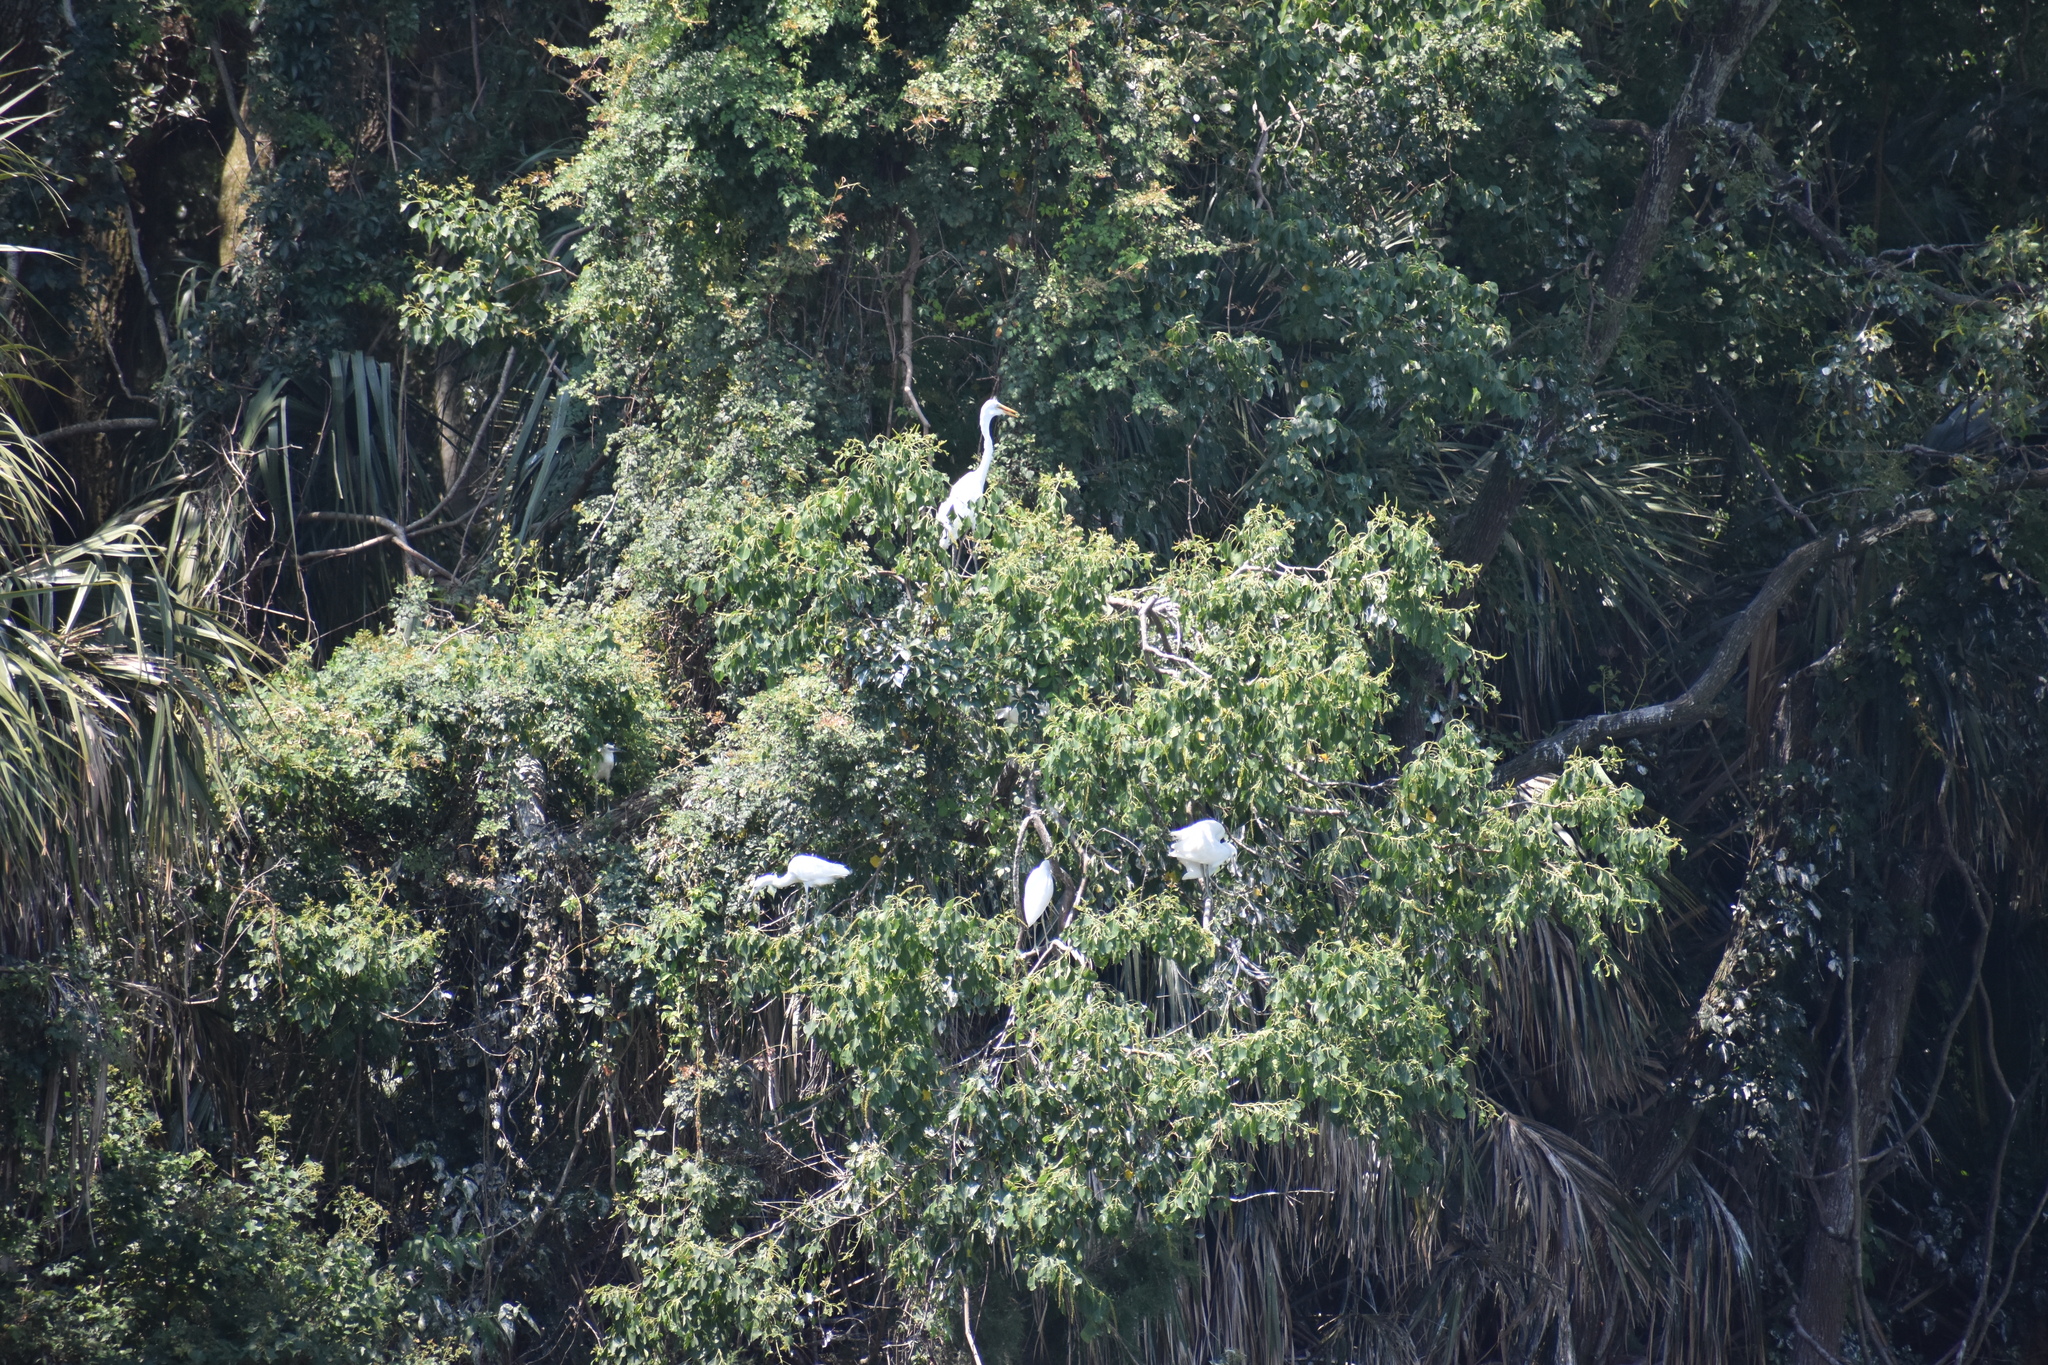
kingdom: Animalia
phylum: Chordata
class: Aves
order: Pelecaniformes
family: Ardeidae
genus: Ardea
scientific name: Ardea alba
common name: Great egret
